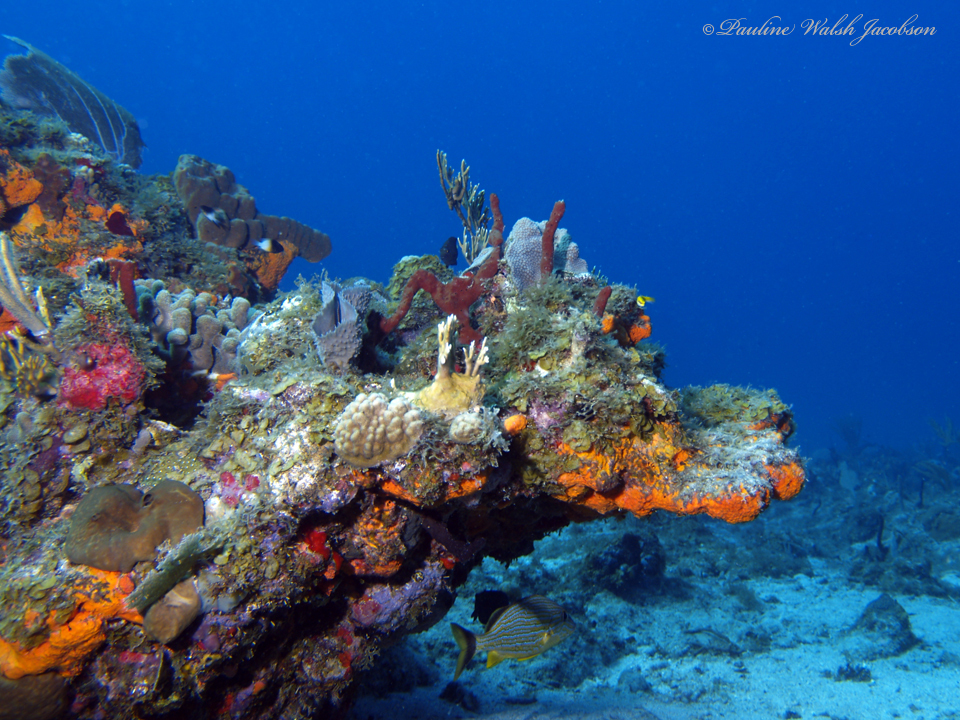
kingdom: Animalia
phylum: Chordata
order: Perciformes
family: Pomacentridae
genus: Stegastes
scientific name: Stegastes partitus
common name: Bicolor damselfish
